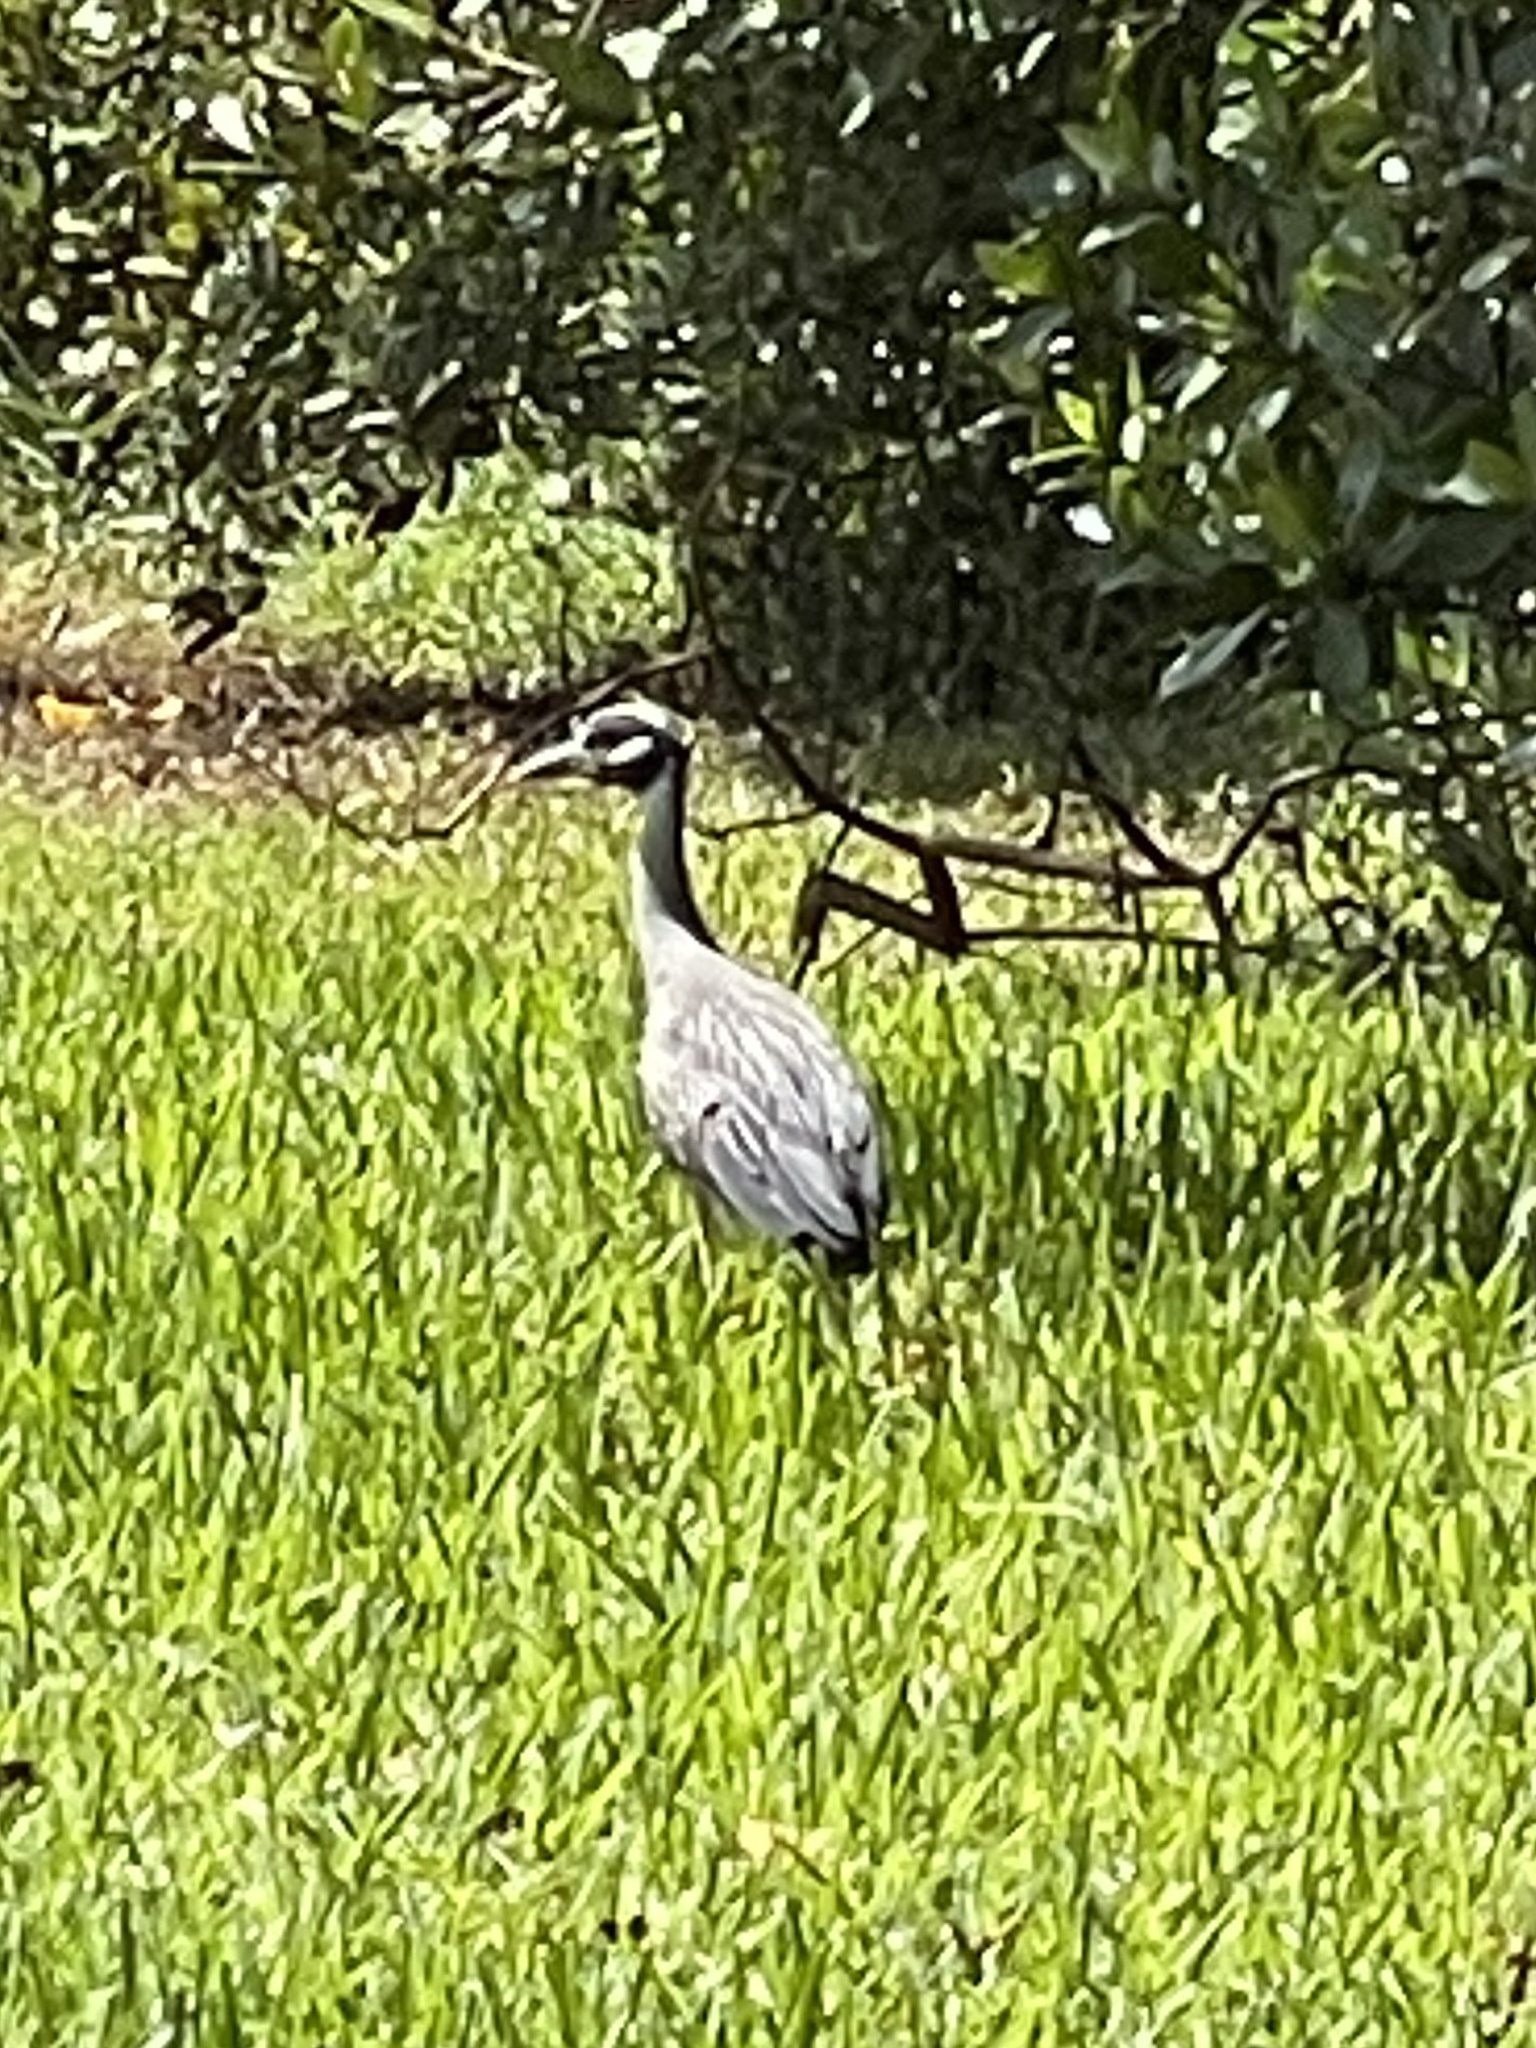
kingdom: Animalia
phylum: Chordata
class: Aves
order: Pelecaniformes
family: Ardeidae
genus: Nyctanassa
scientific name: Nyctanassa violacea
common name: Yellow-crowned night heron
